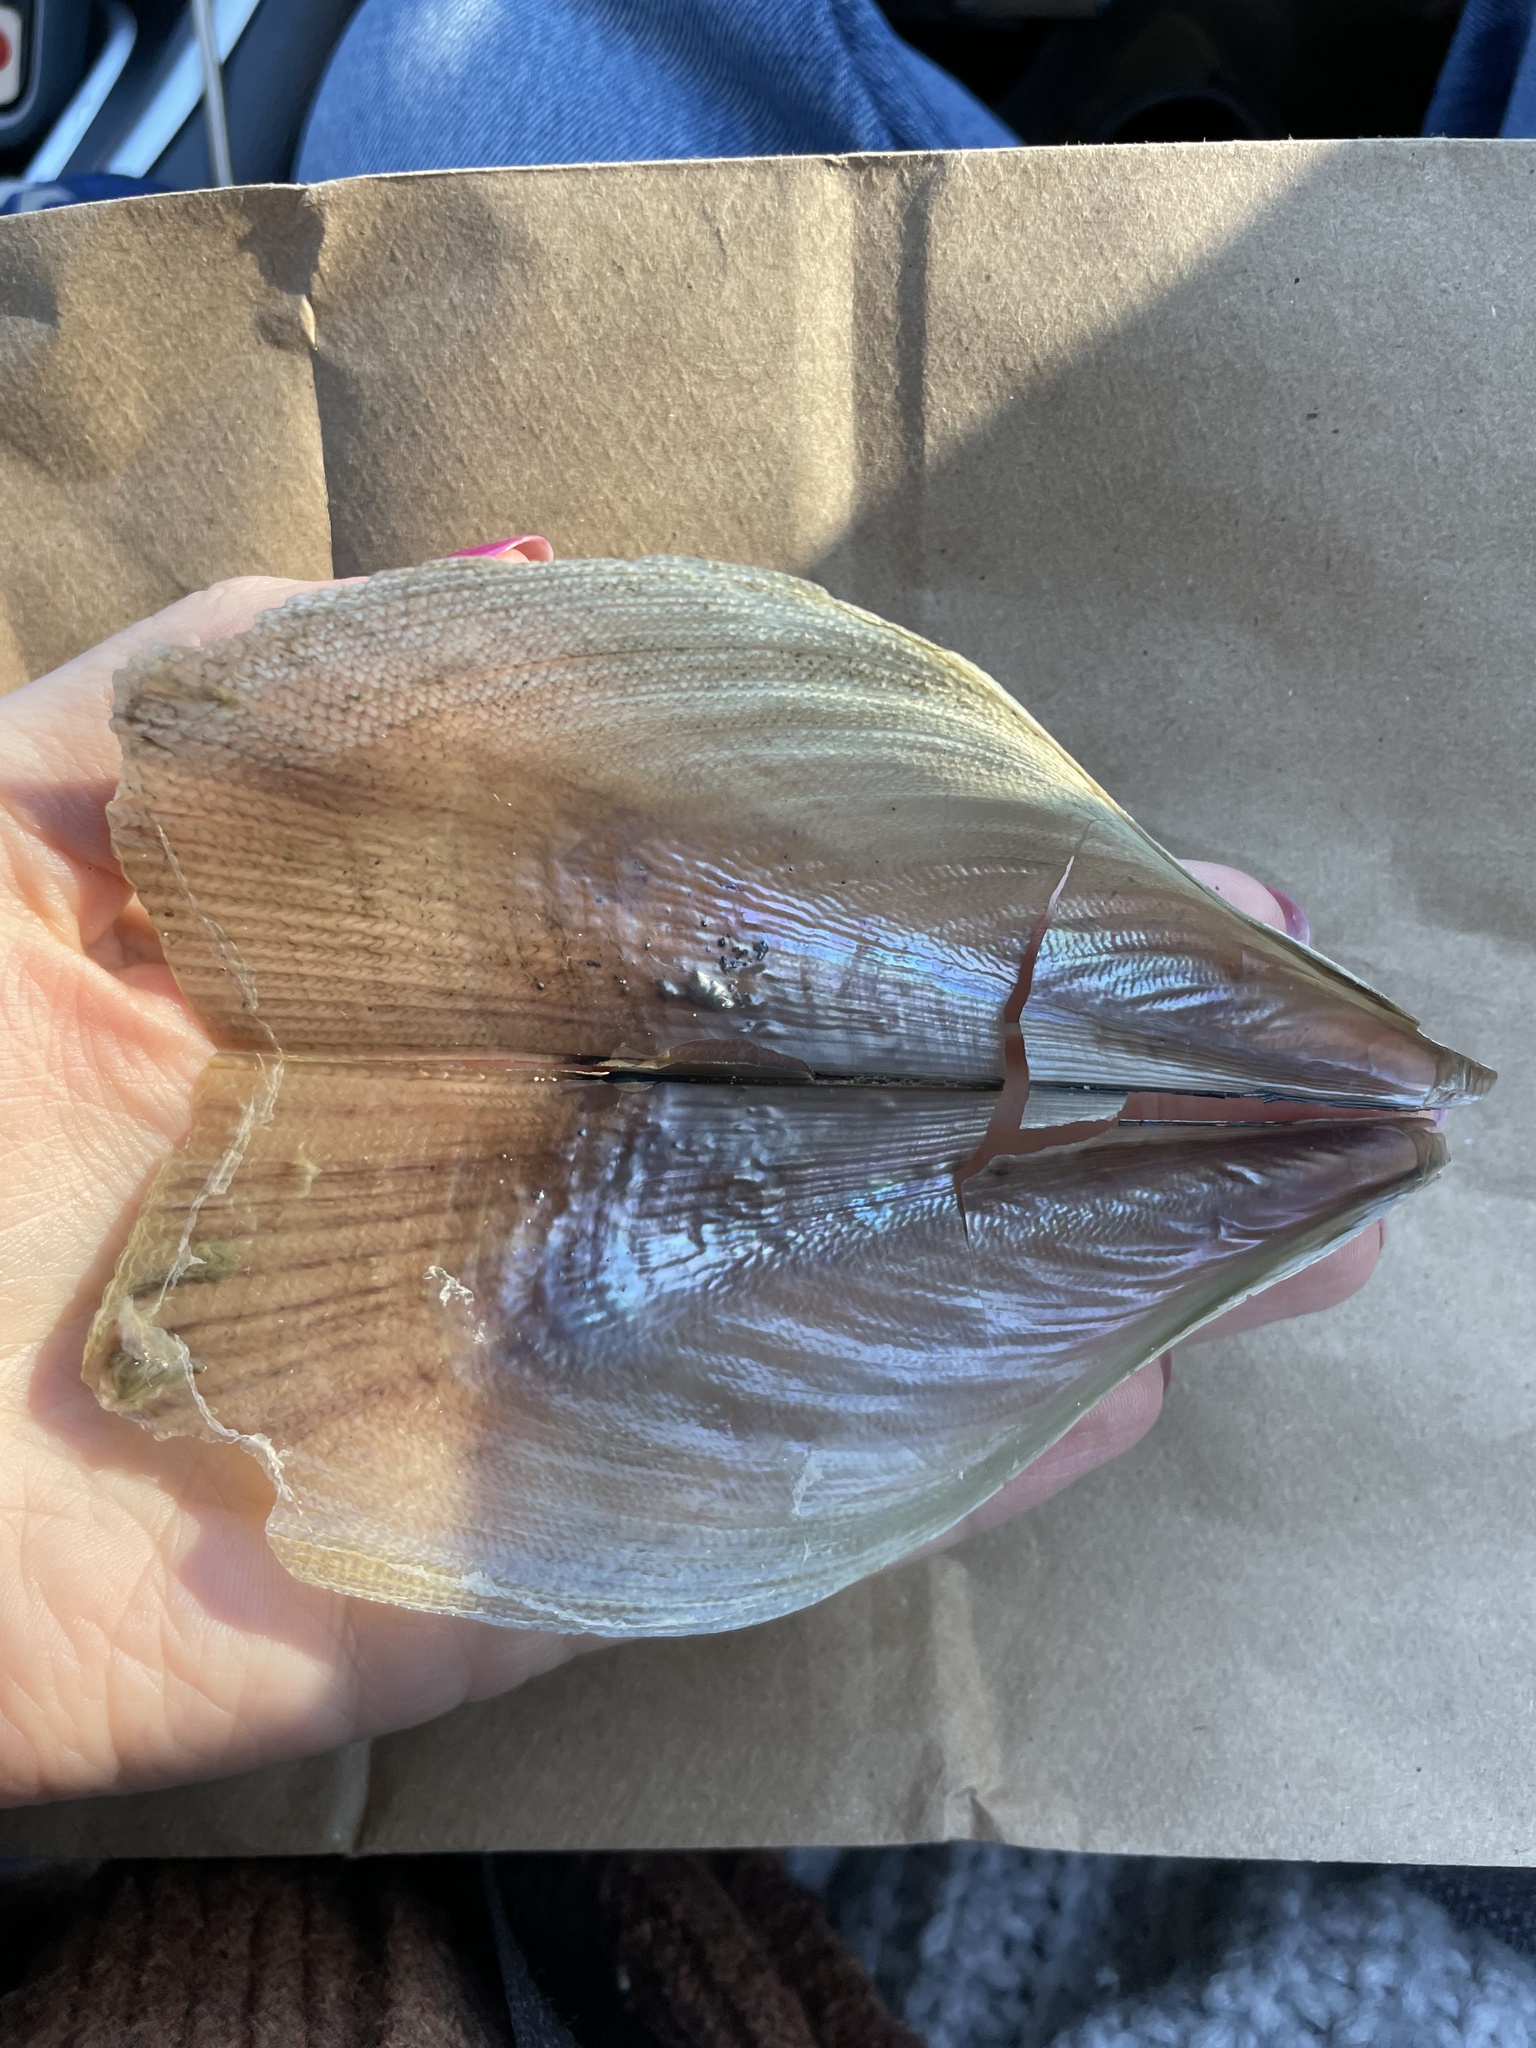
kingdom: Animalia
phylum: Mollusca
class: Bivalvia
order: Ostreida
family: Pinnidae
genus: Atrina
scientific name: Atrina serrata
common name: Saw-toothed penshell
